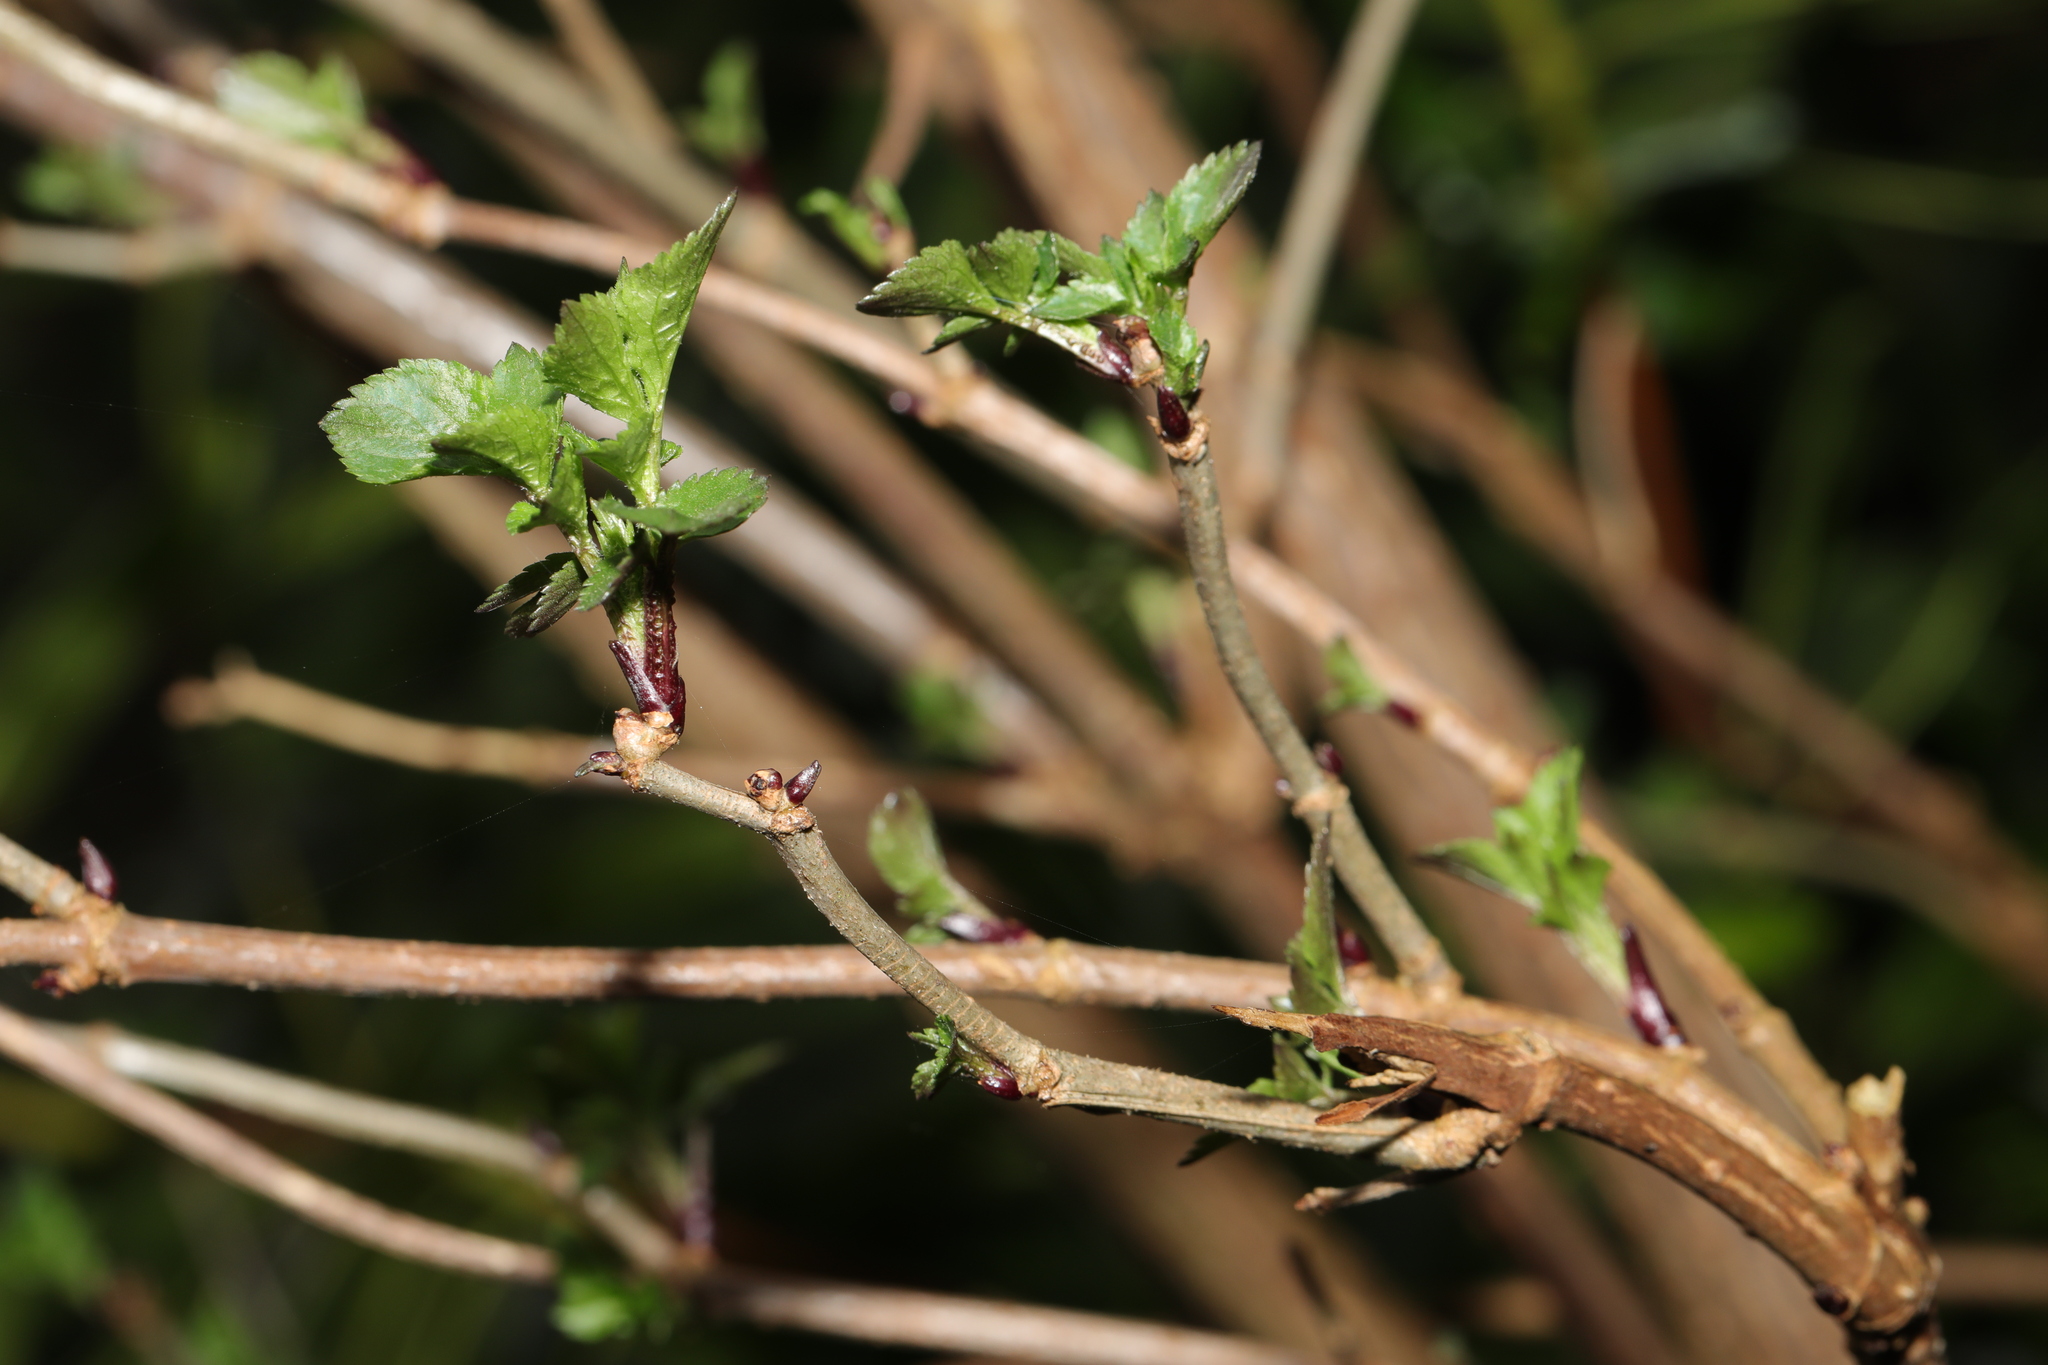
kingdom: Plantae
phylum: Tracheophyta
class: Magnoliopsida
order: Dipsacales
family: Viburnaceae
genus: Sambucus
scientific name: Sambucus nigra
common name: Elder
